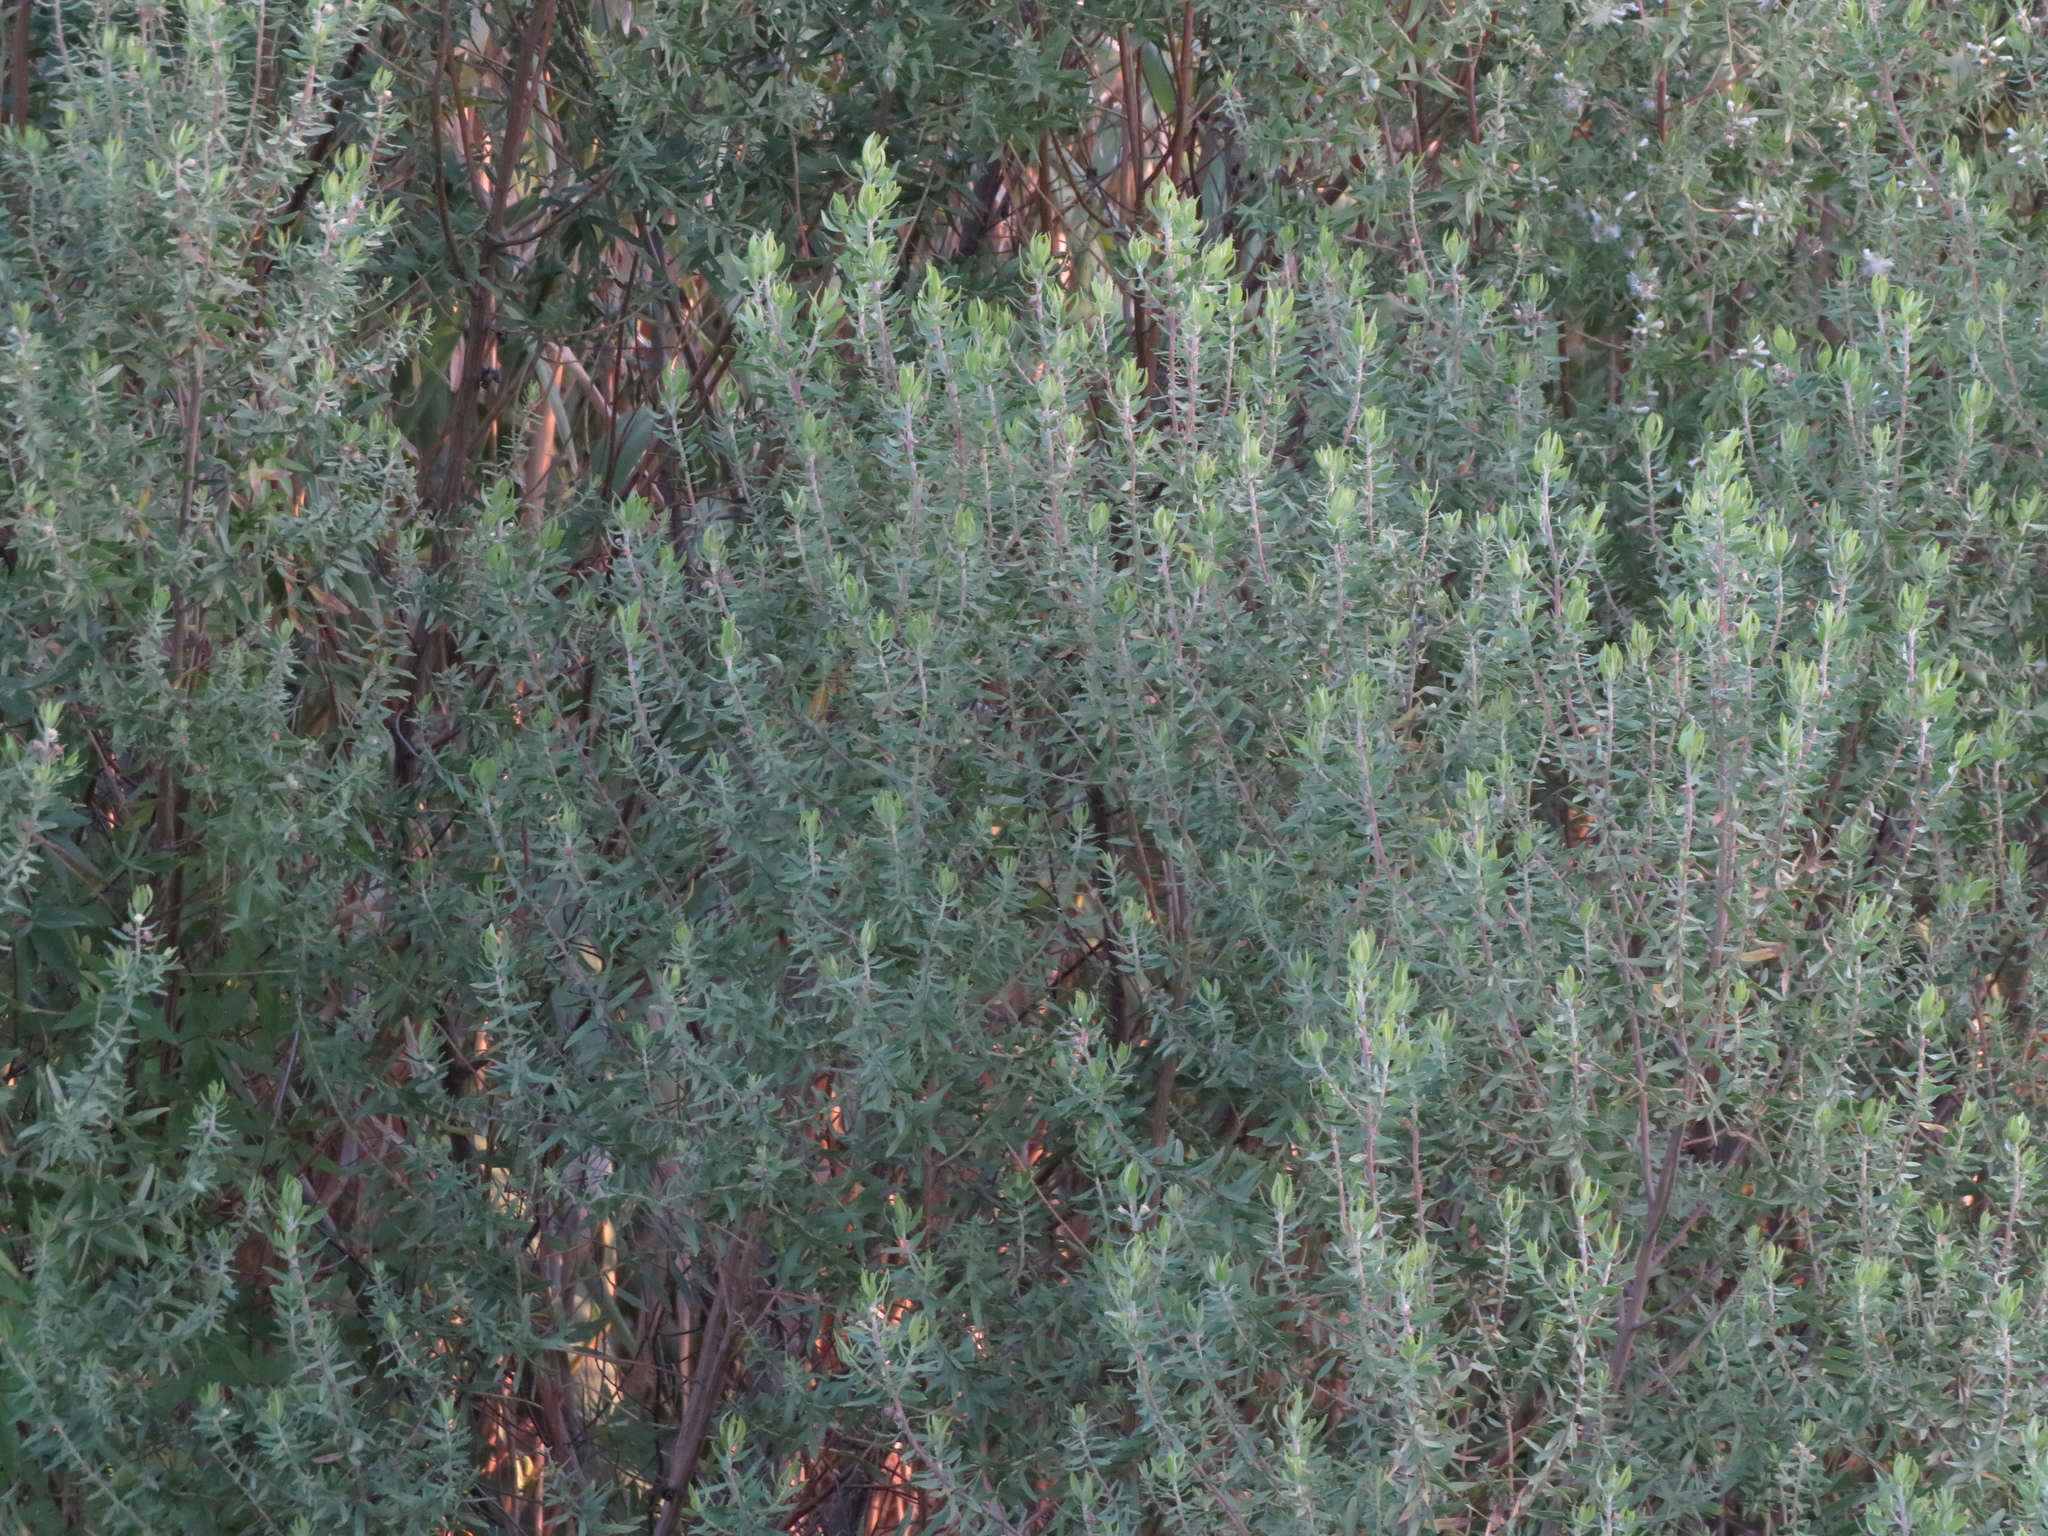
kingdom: Plantae
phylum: Tracheophyta
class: Magnoliopsida
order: Asterales
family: Asteraceae
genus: Baccharis
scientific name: Baccharis dracunculifolia
